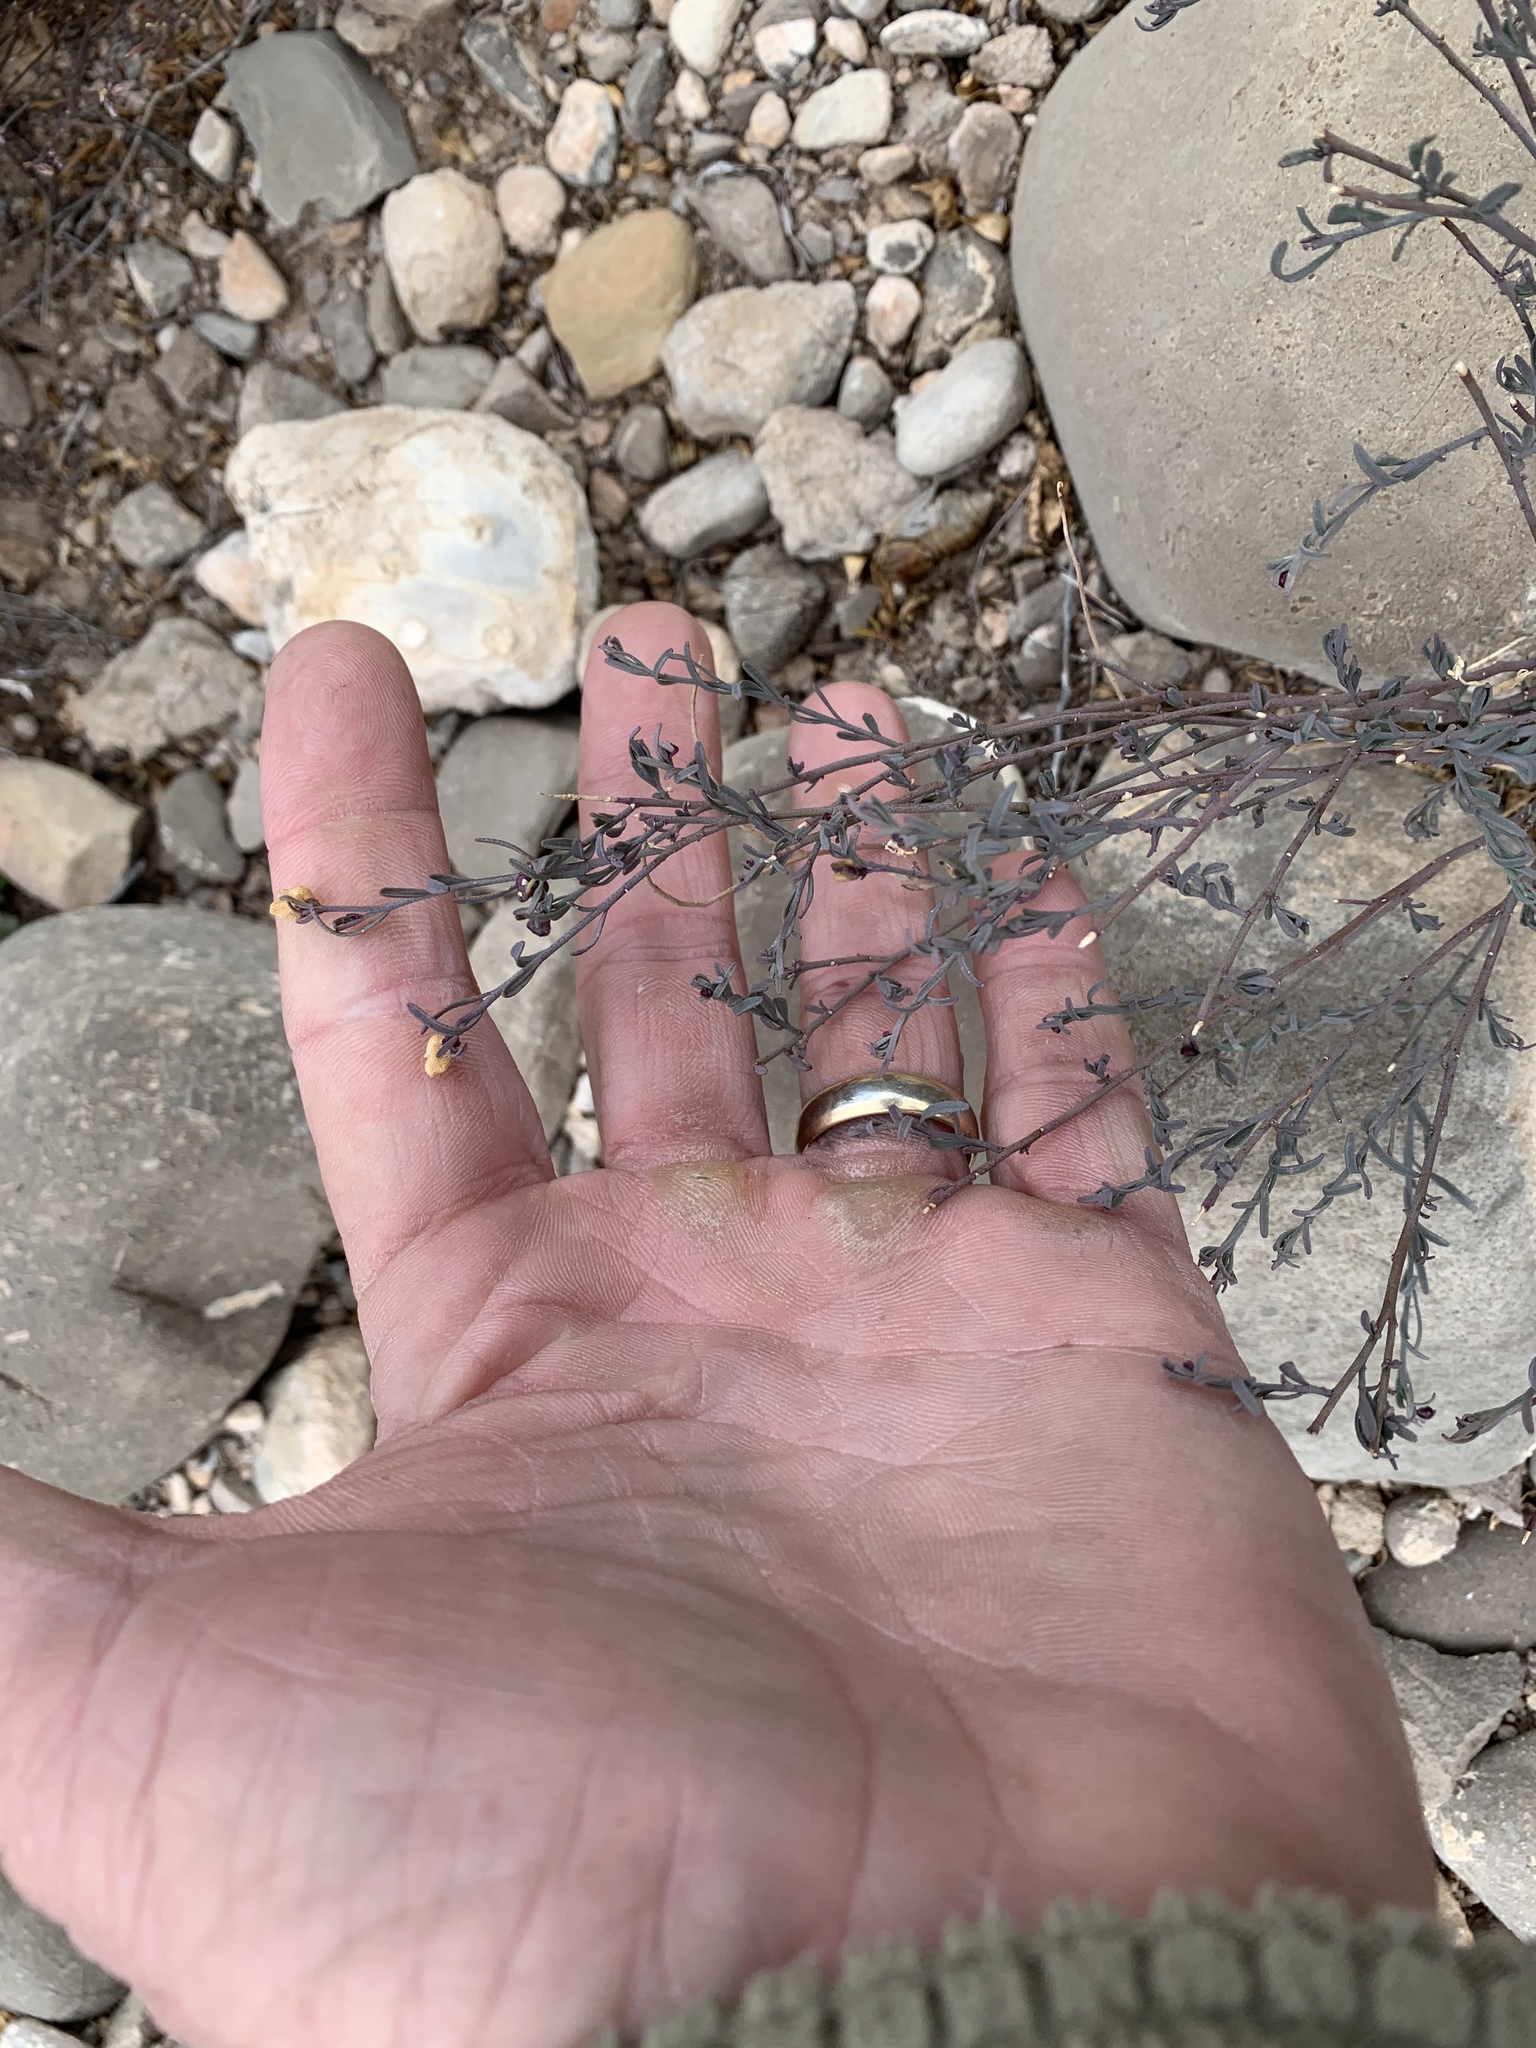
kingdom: Plantae
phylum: Tracheophyta
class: Magnoliopsida
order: Sapindales
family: Rutaceae
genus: Thamnosma
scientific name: Thamnosma texana
